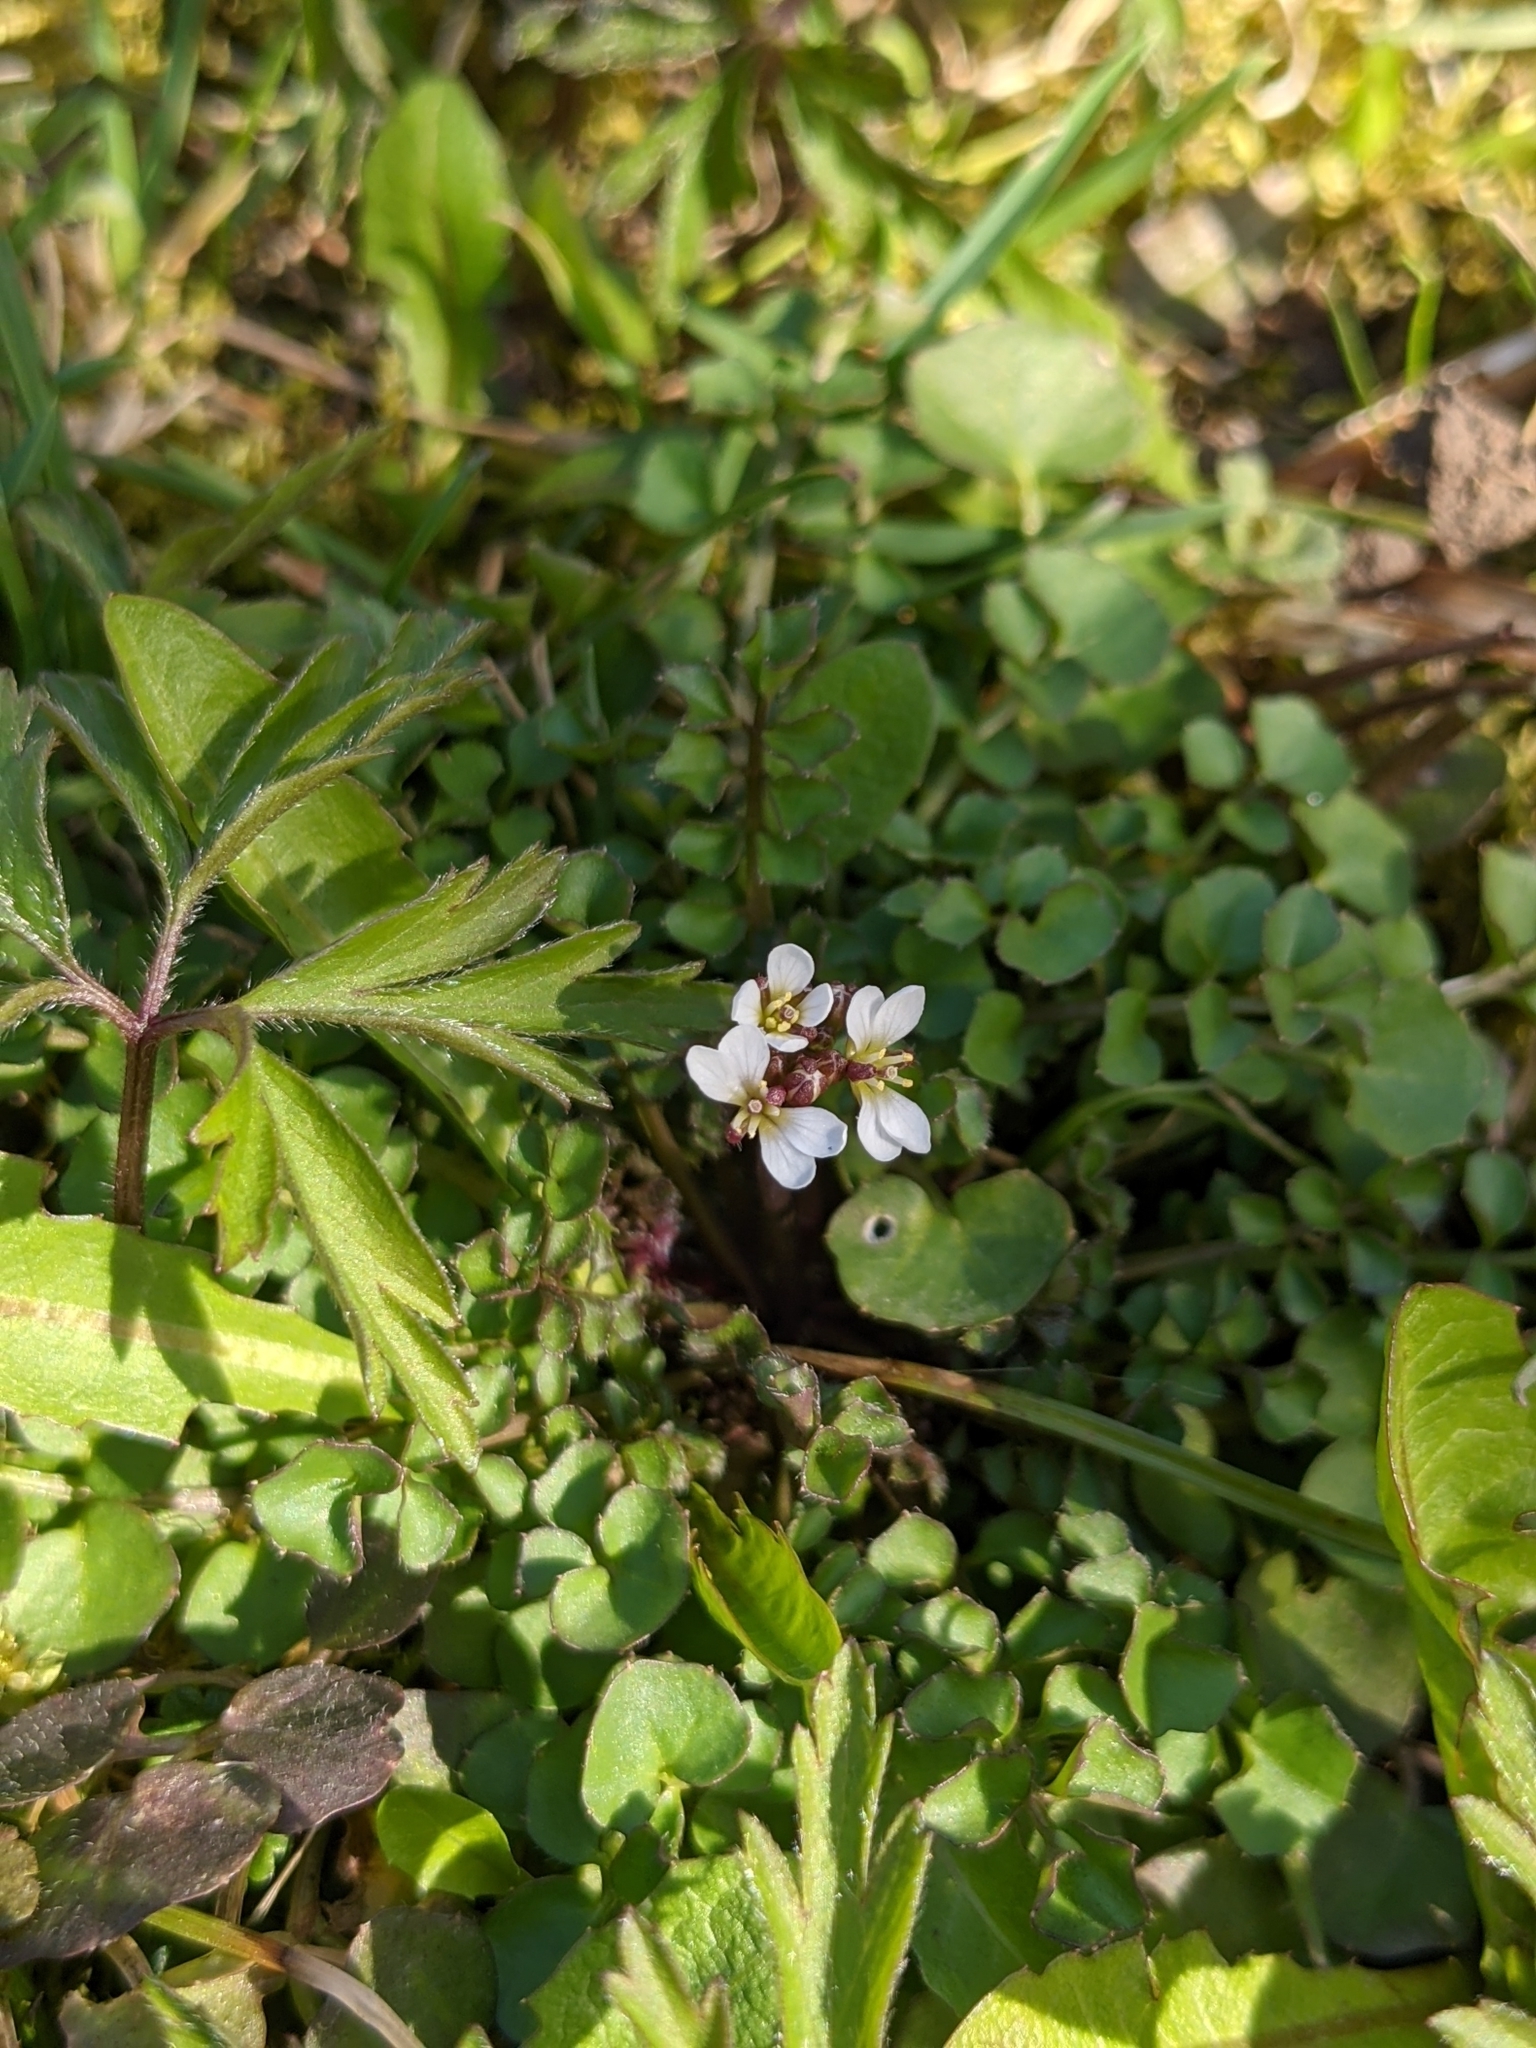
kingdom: Plantae
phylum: Tracheophyta
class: Magnoliopsida
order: Brassicales
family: Brassicaceae
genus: Cardamine
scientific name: Cardamine hirsuta
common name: Hairy bittercress
